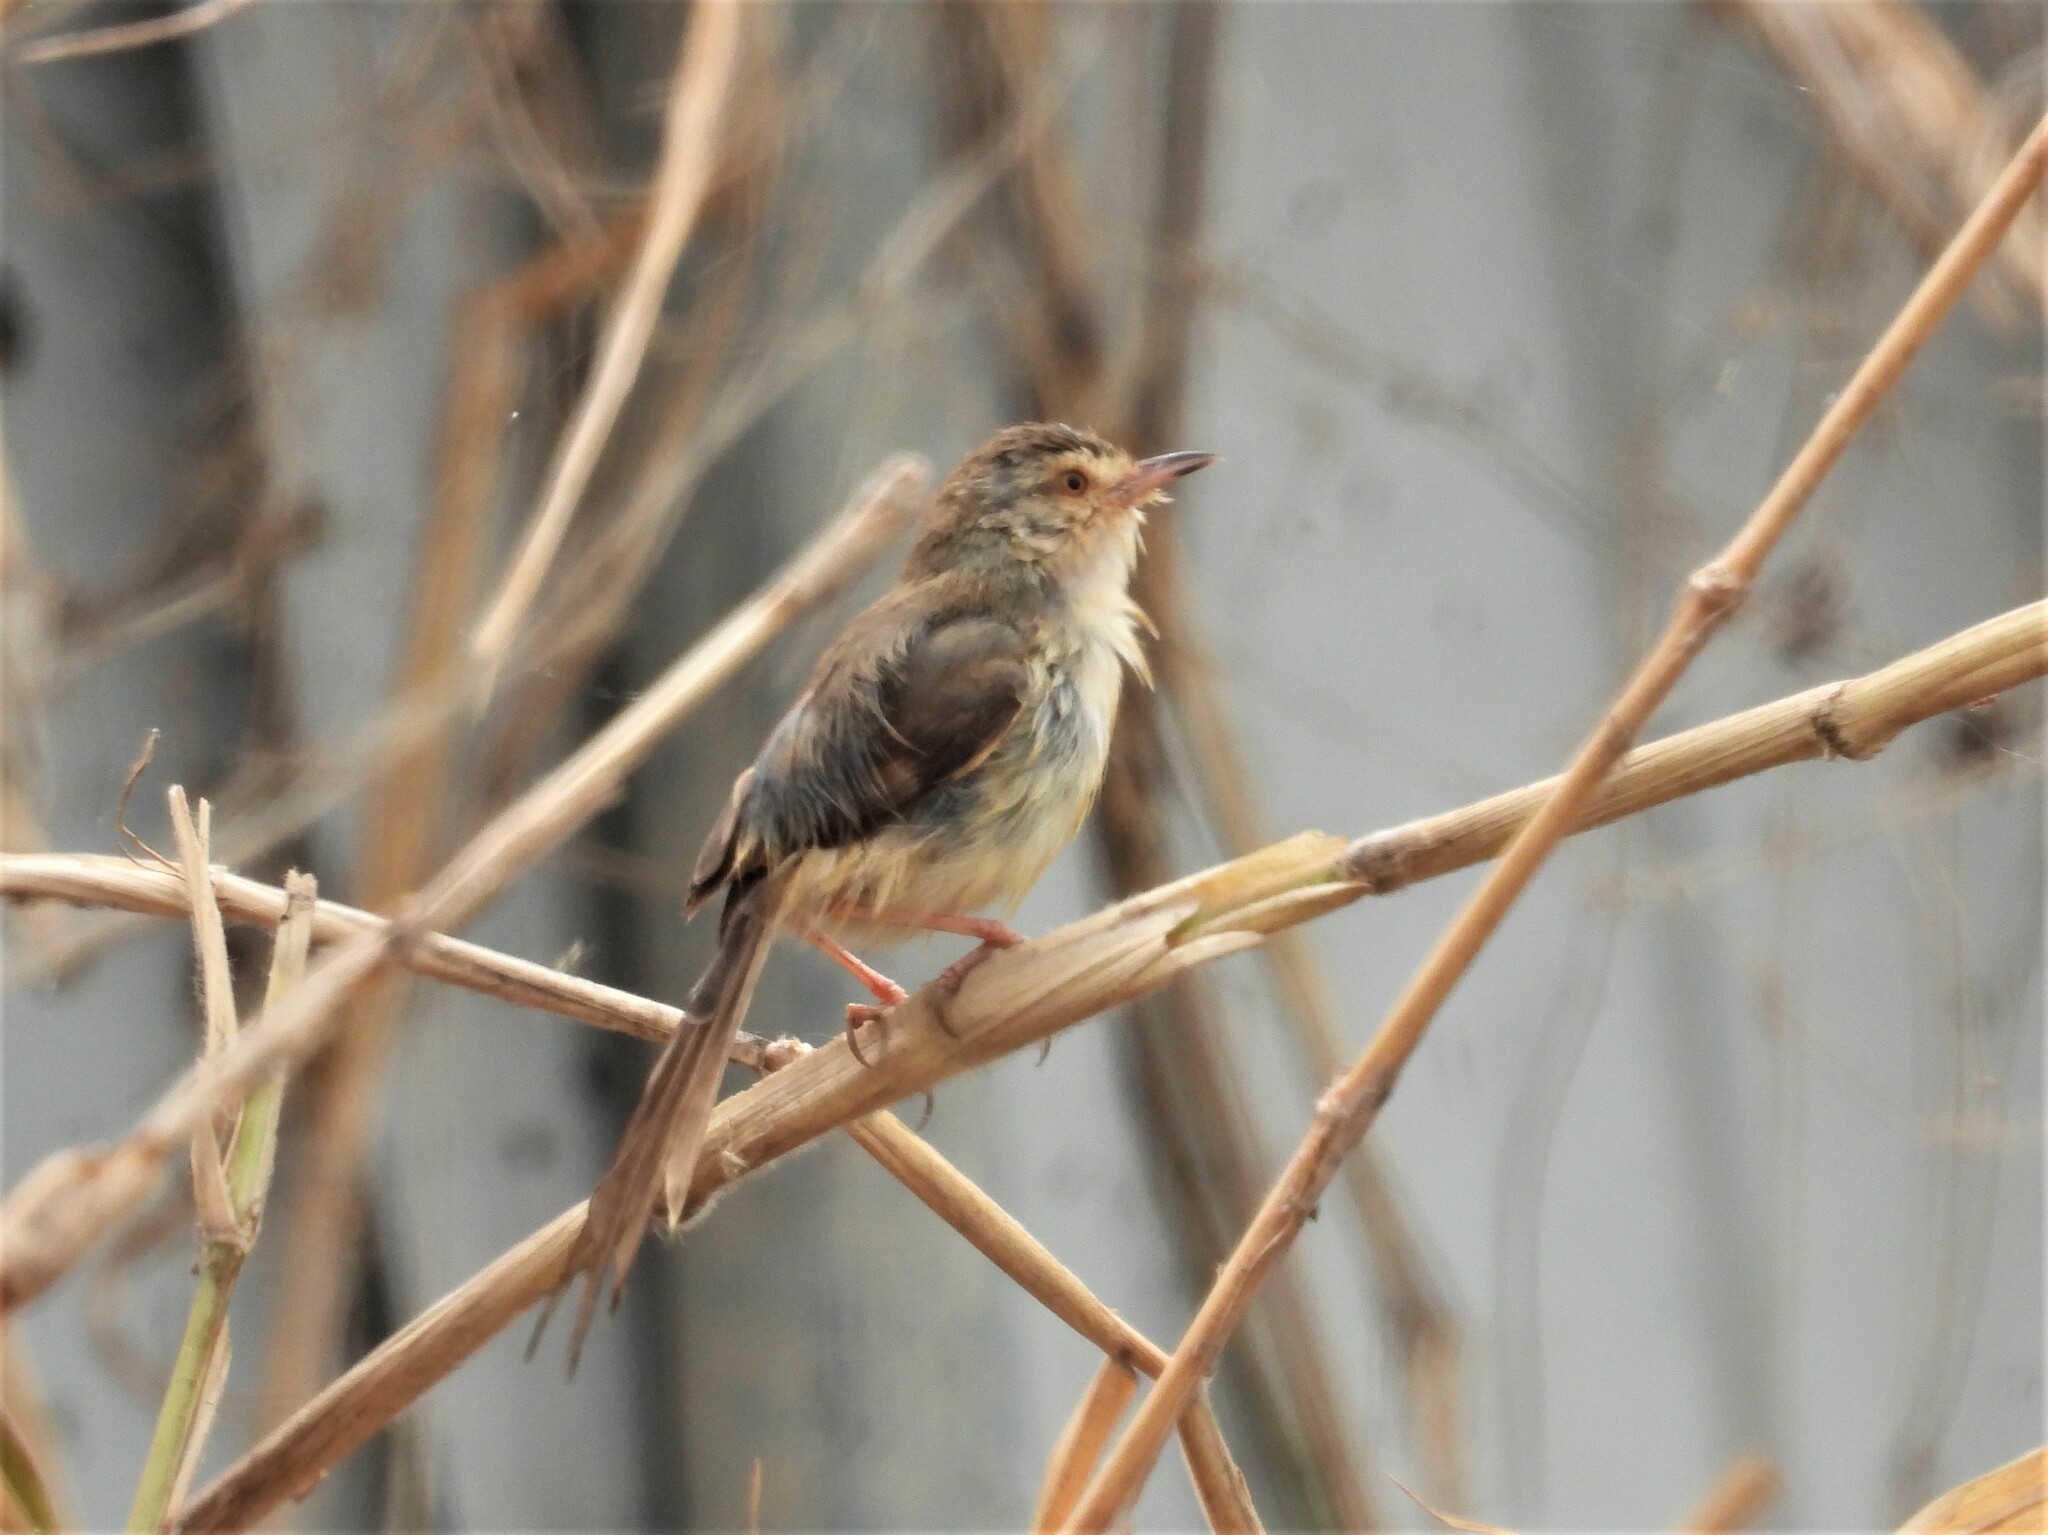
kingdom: Animalia
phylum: Chordata
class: Aves
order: Passeriformes
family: Cisticolidae
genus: Prinia
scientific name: Prinia inornata
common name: Plain prinia
